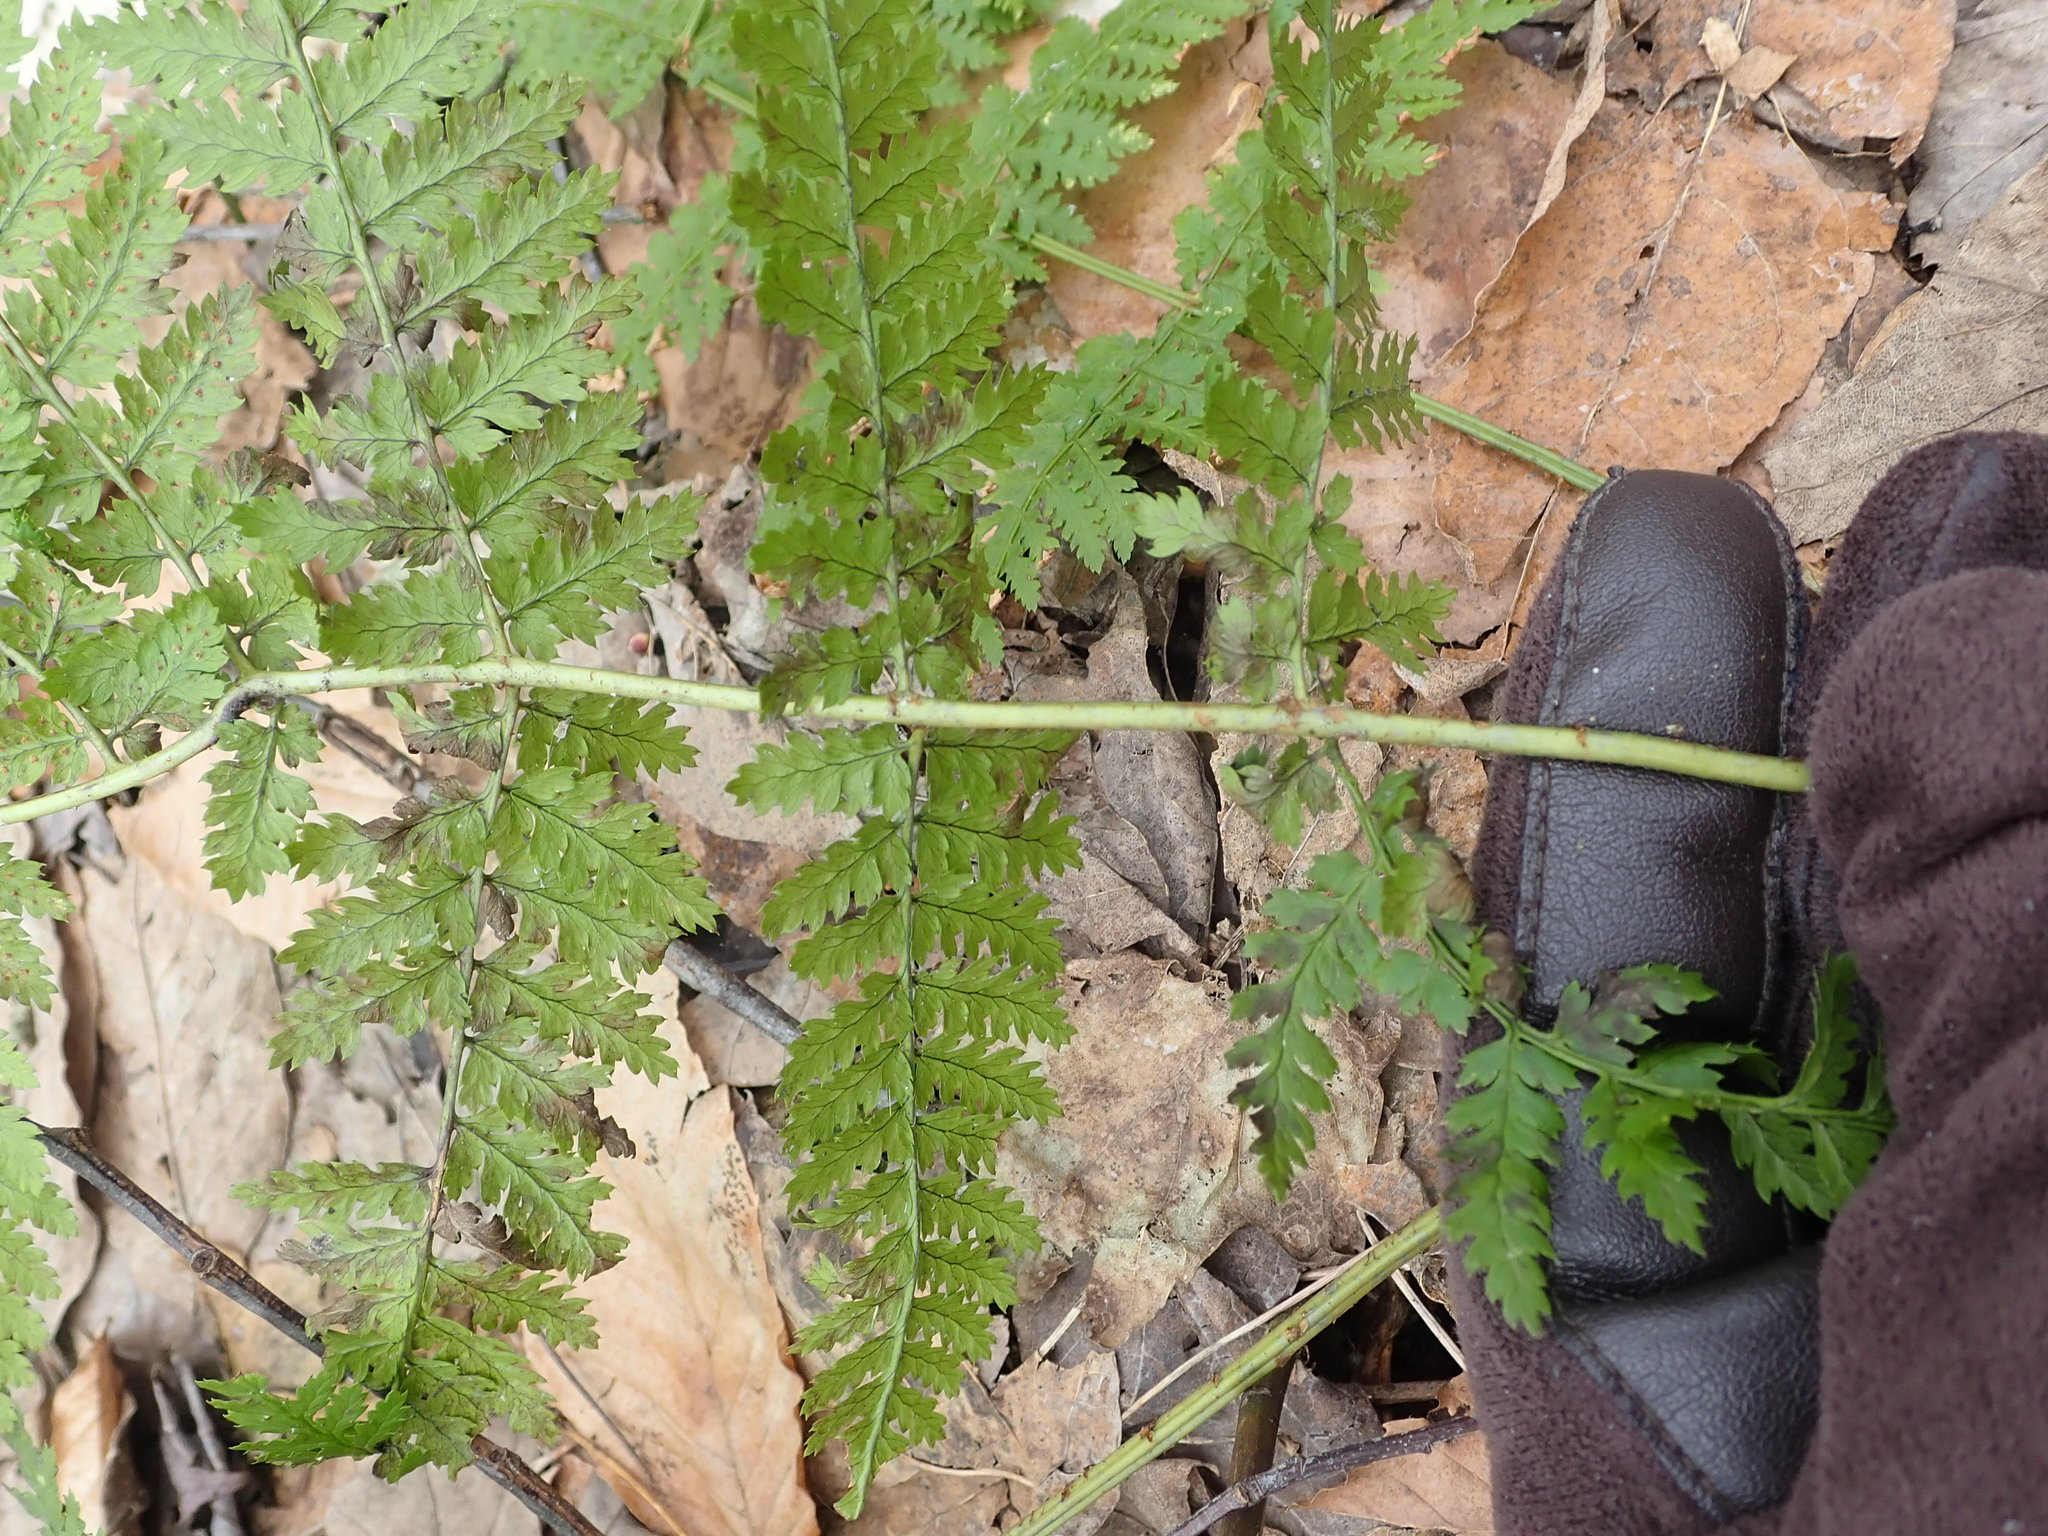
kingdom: Plantae
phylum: Tracheophyta
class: Polypodiopsida
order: Polypodiales
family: Dryopteridaceae
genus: Dryopteris
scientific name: Dryopteris intermedia
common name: Evergreen wood fern
